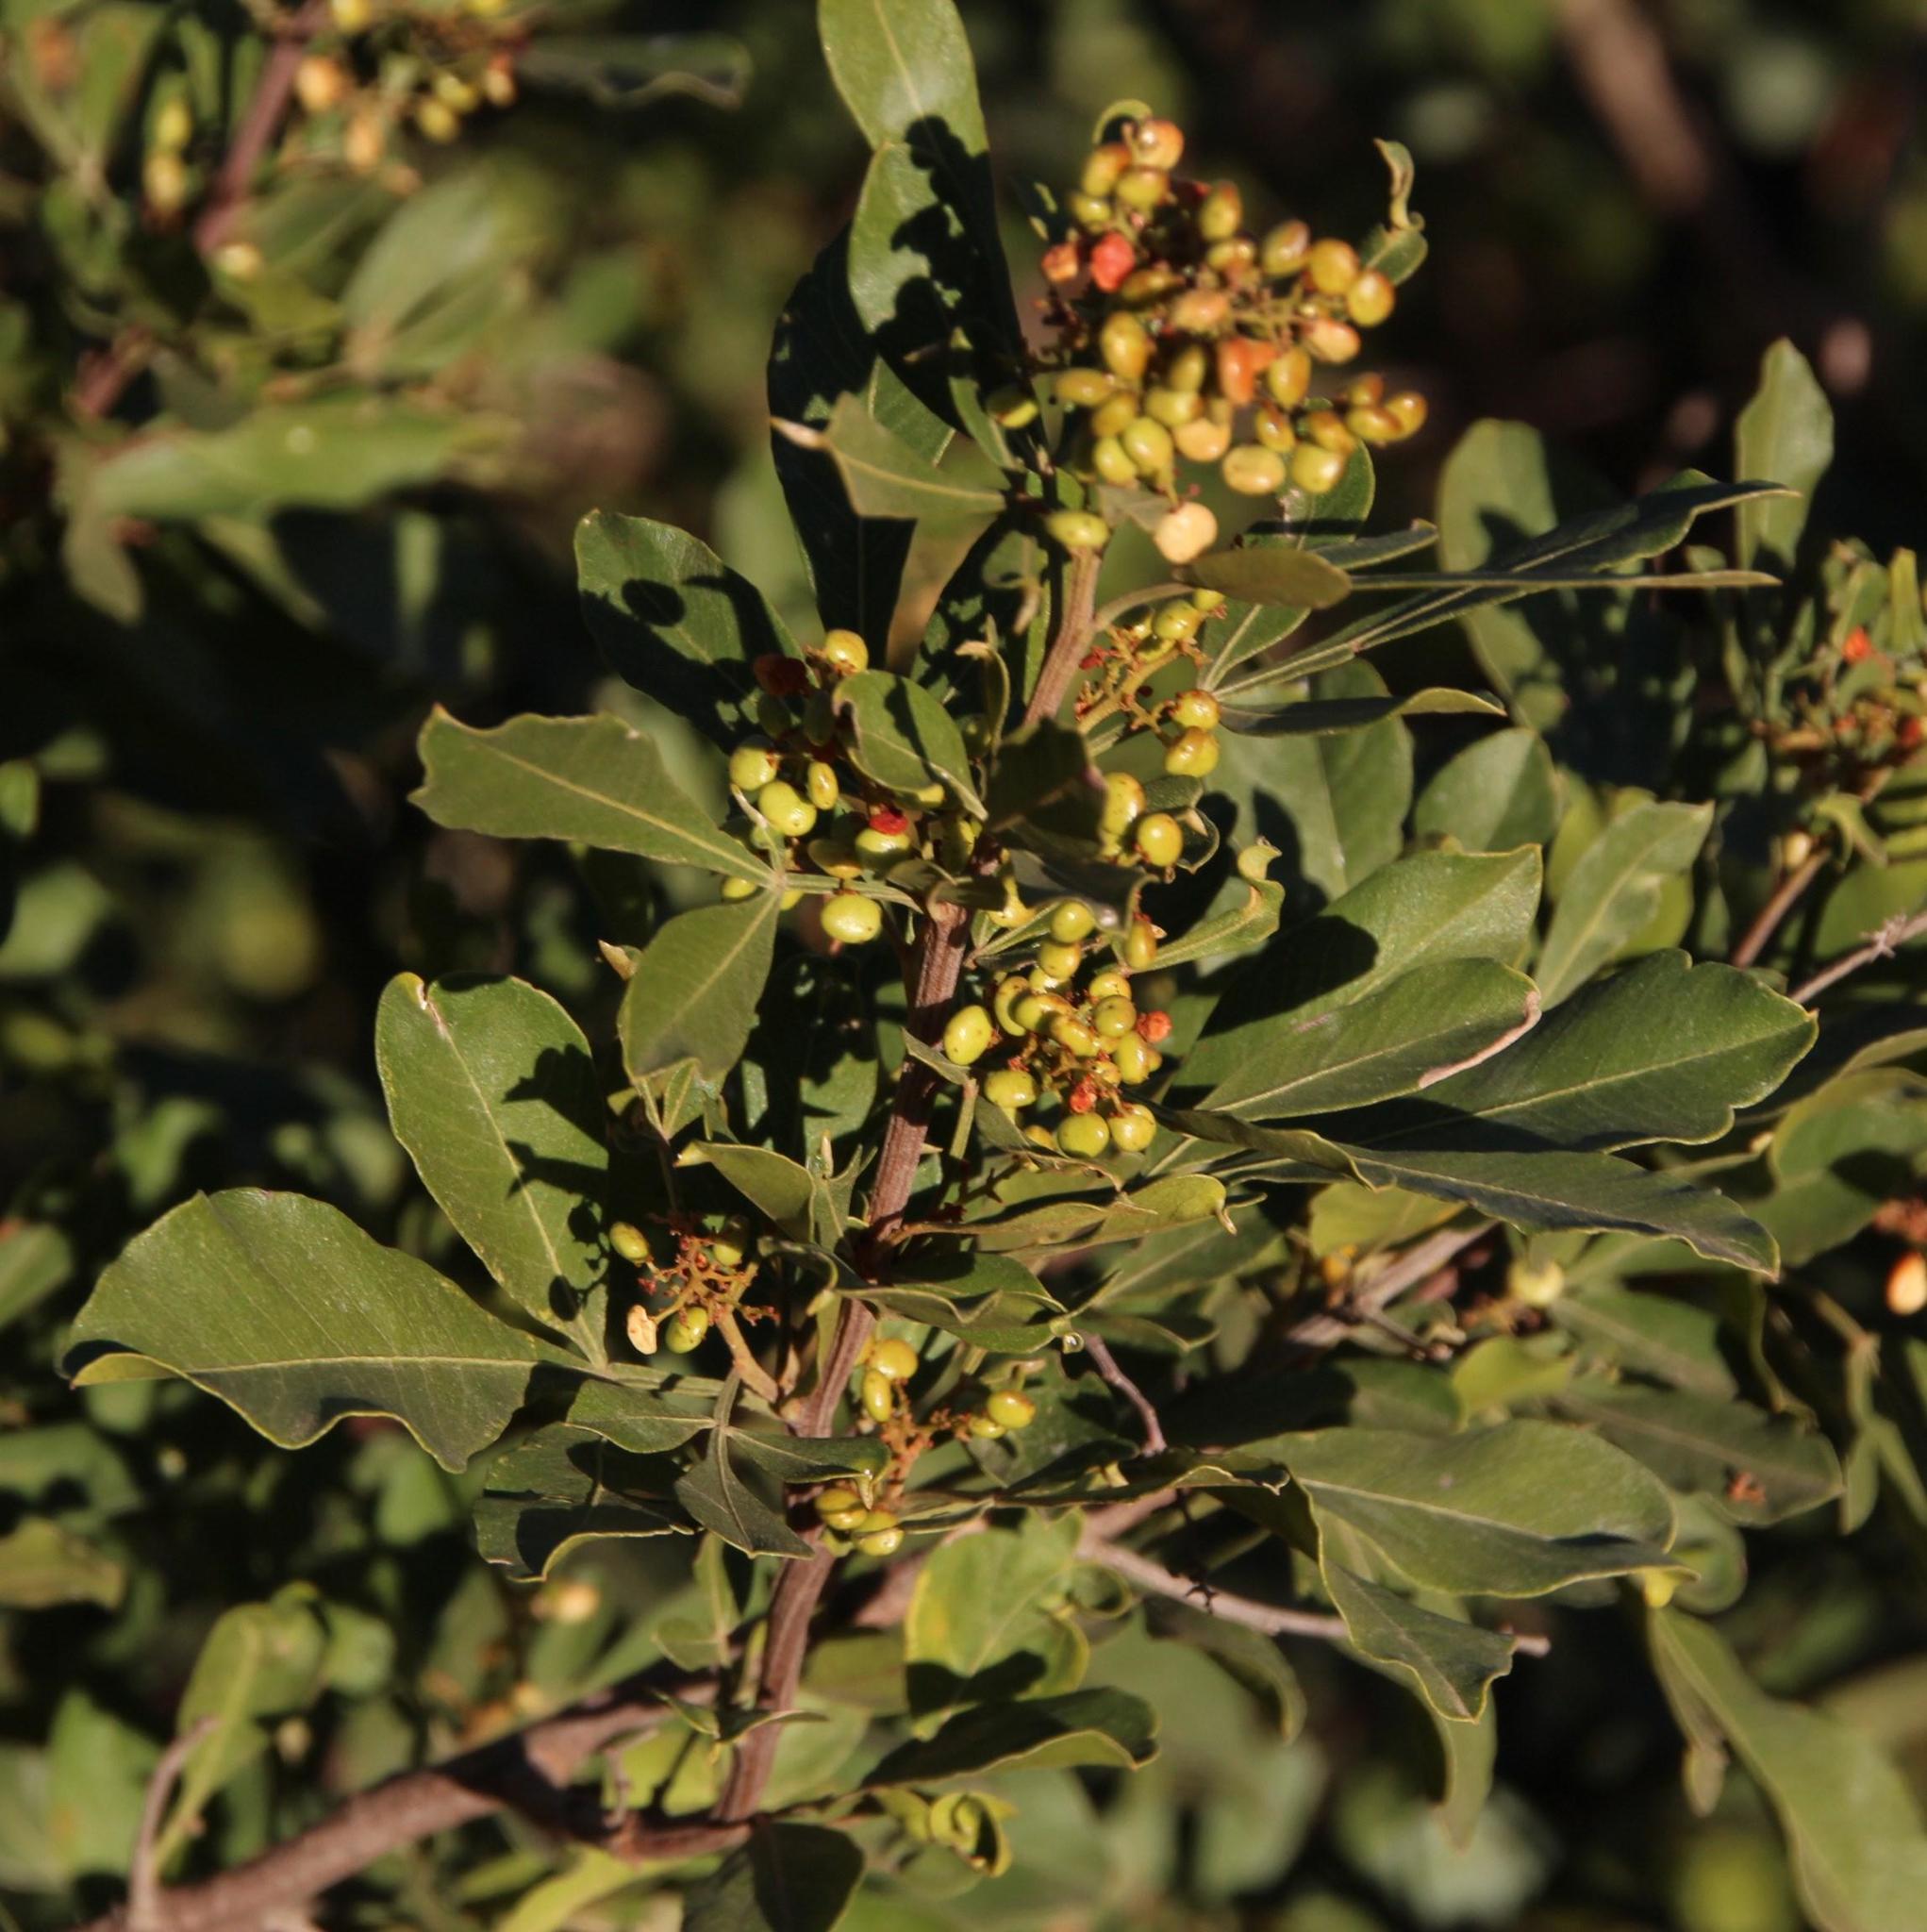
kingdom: Plantae
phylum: Tracheophyta
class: Magnoliopsida
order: Sapindales
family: Anacardiaceae
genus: Searsia
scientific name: Searsia pallens
